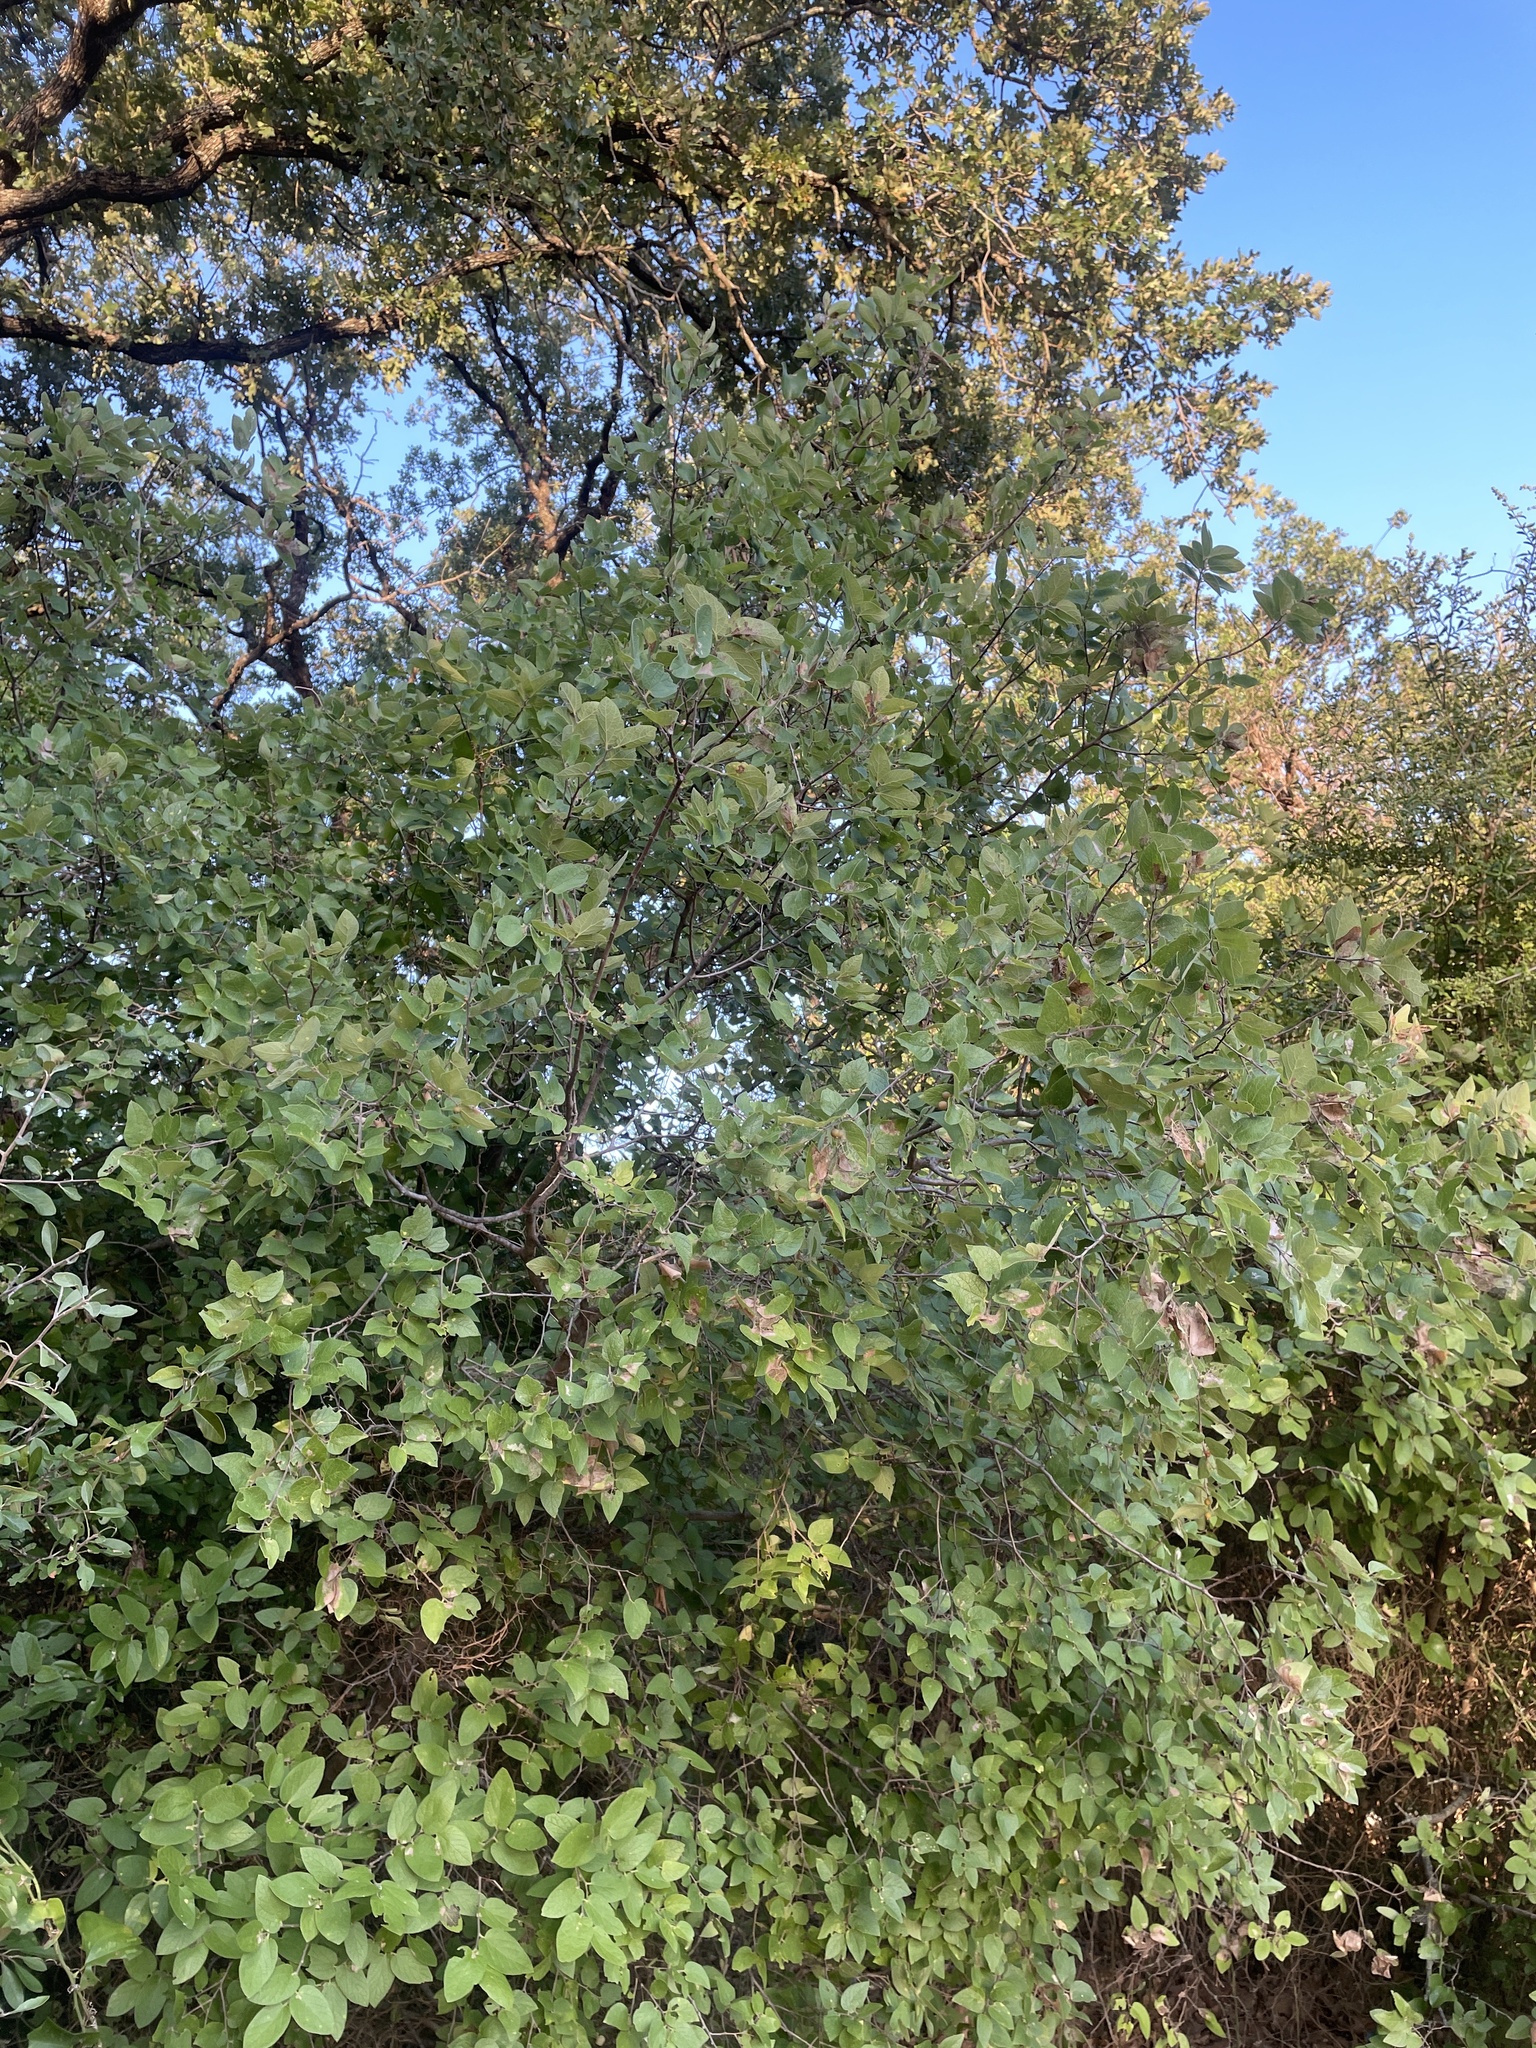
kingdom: Plantae
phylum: Tracheophyta
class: Magnoliopsida
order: Rosales
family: Cannabaceae
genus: Celtis
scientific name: Celtis reticulata
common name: Netleaf hackberry
